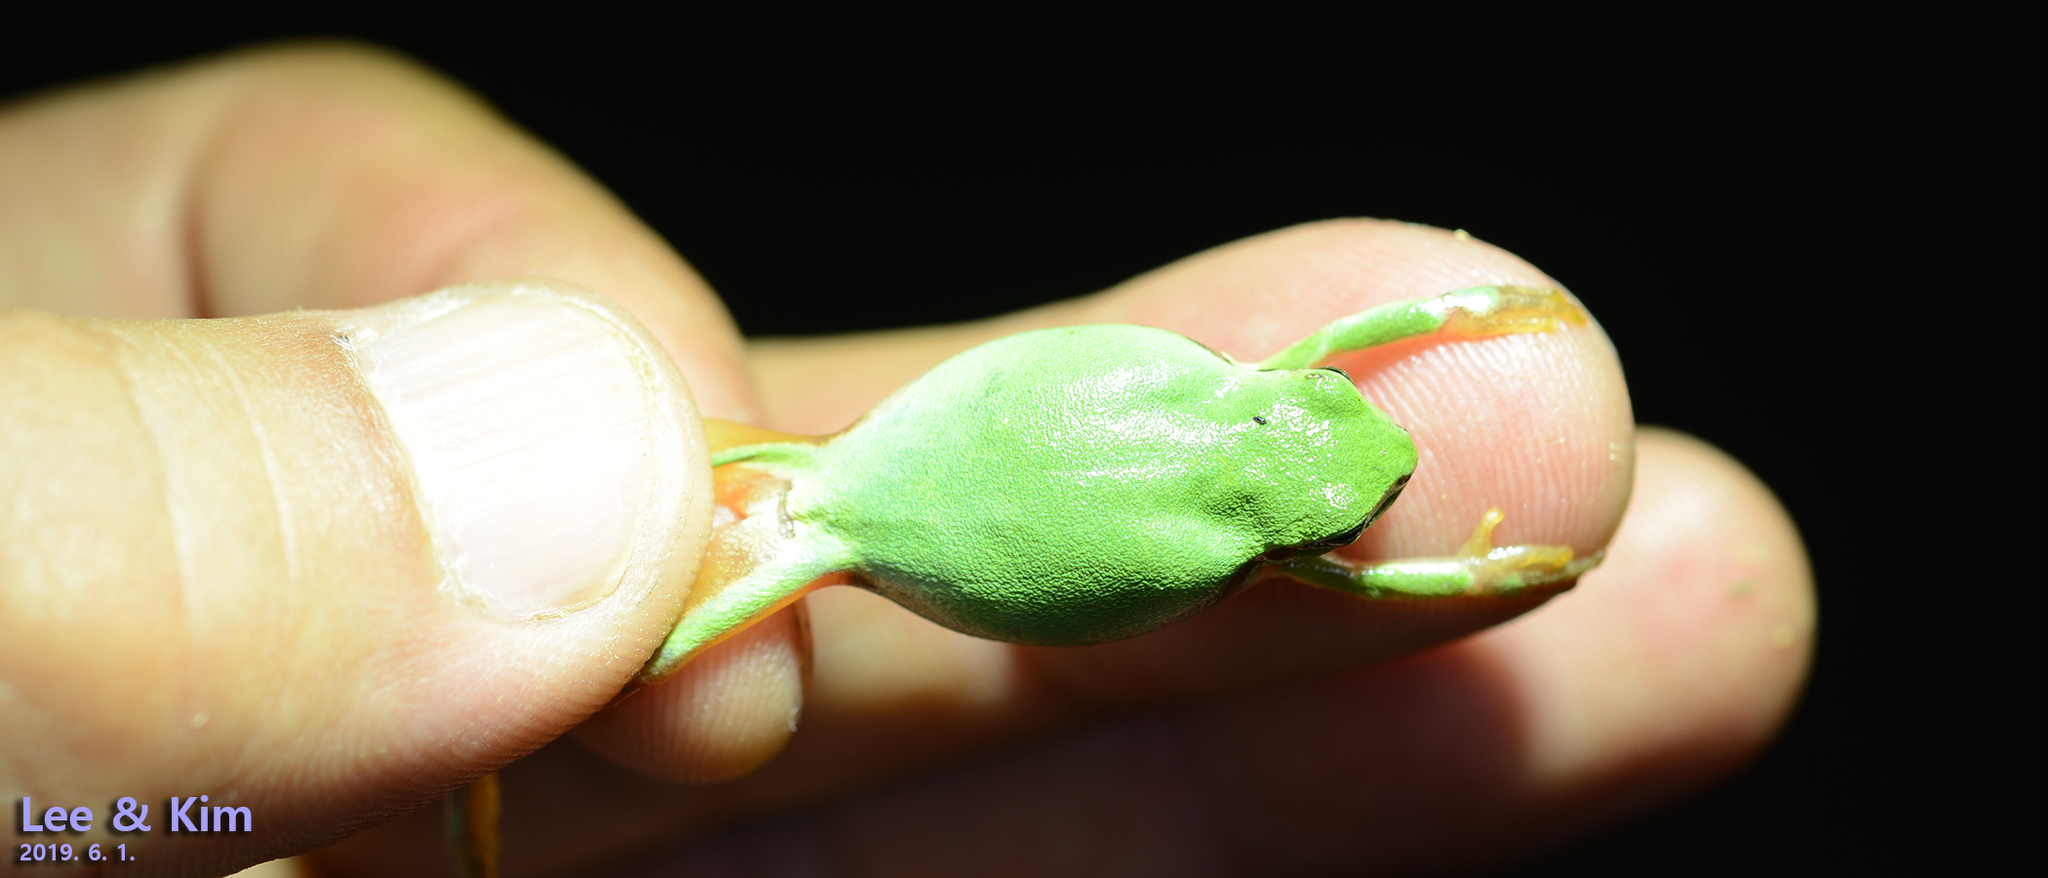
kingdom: Animalia
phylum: Chordata
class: Amphibia
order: Anura
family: Hylidae
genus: Dryophytes
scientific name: Dryophytes immaculatus
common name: North china treefrog
